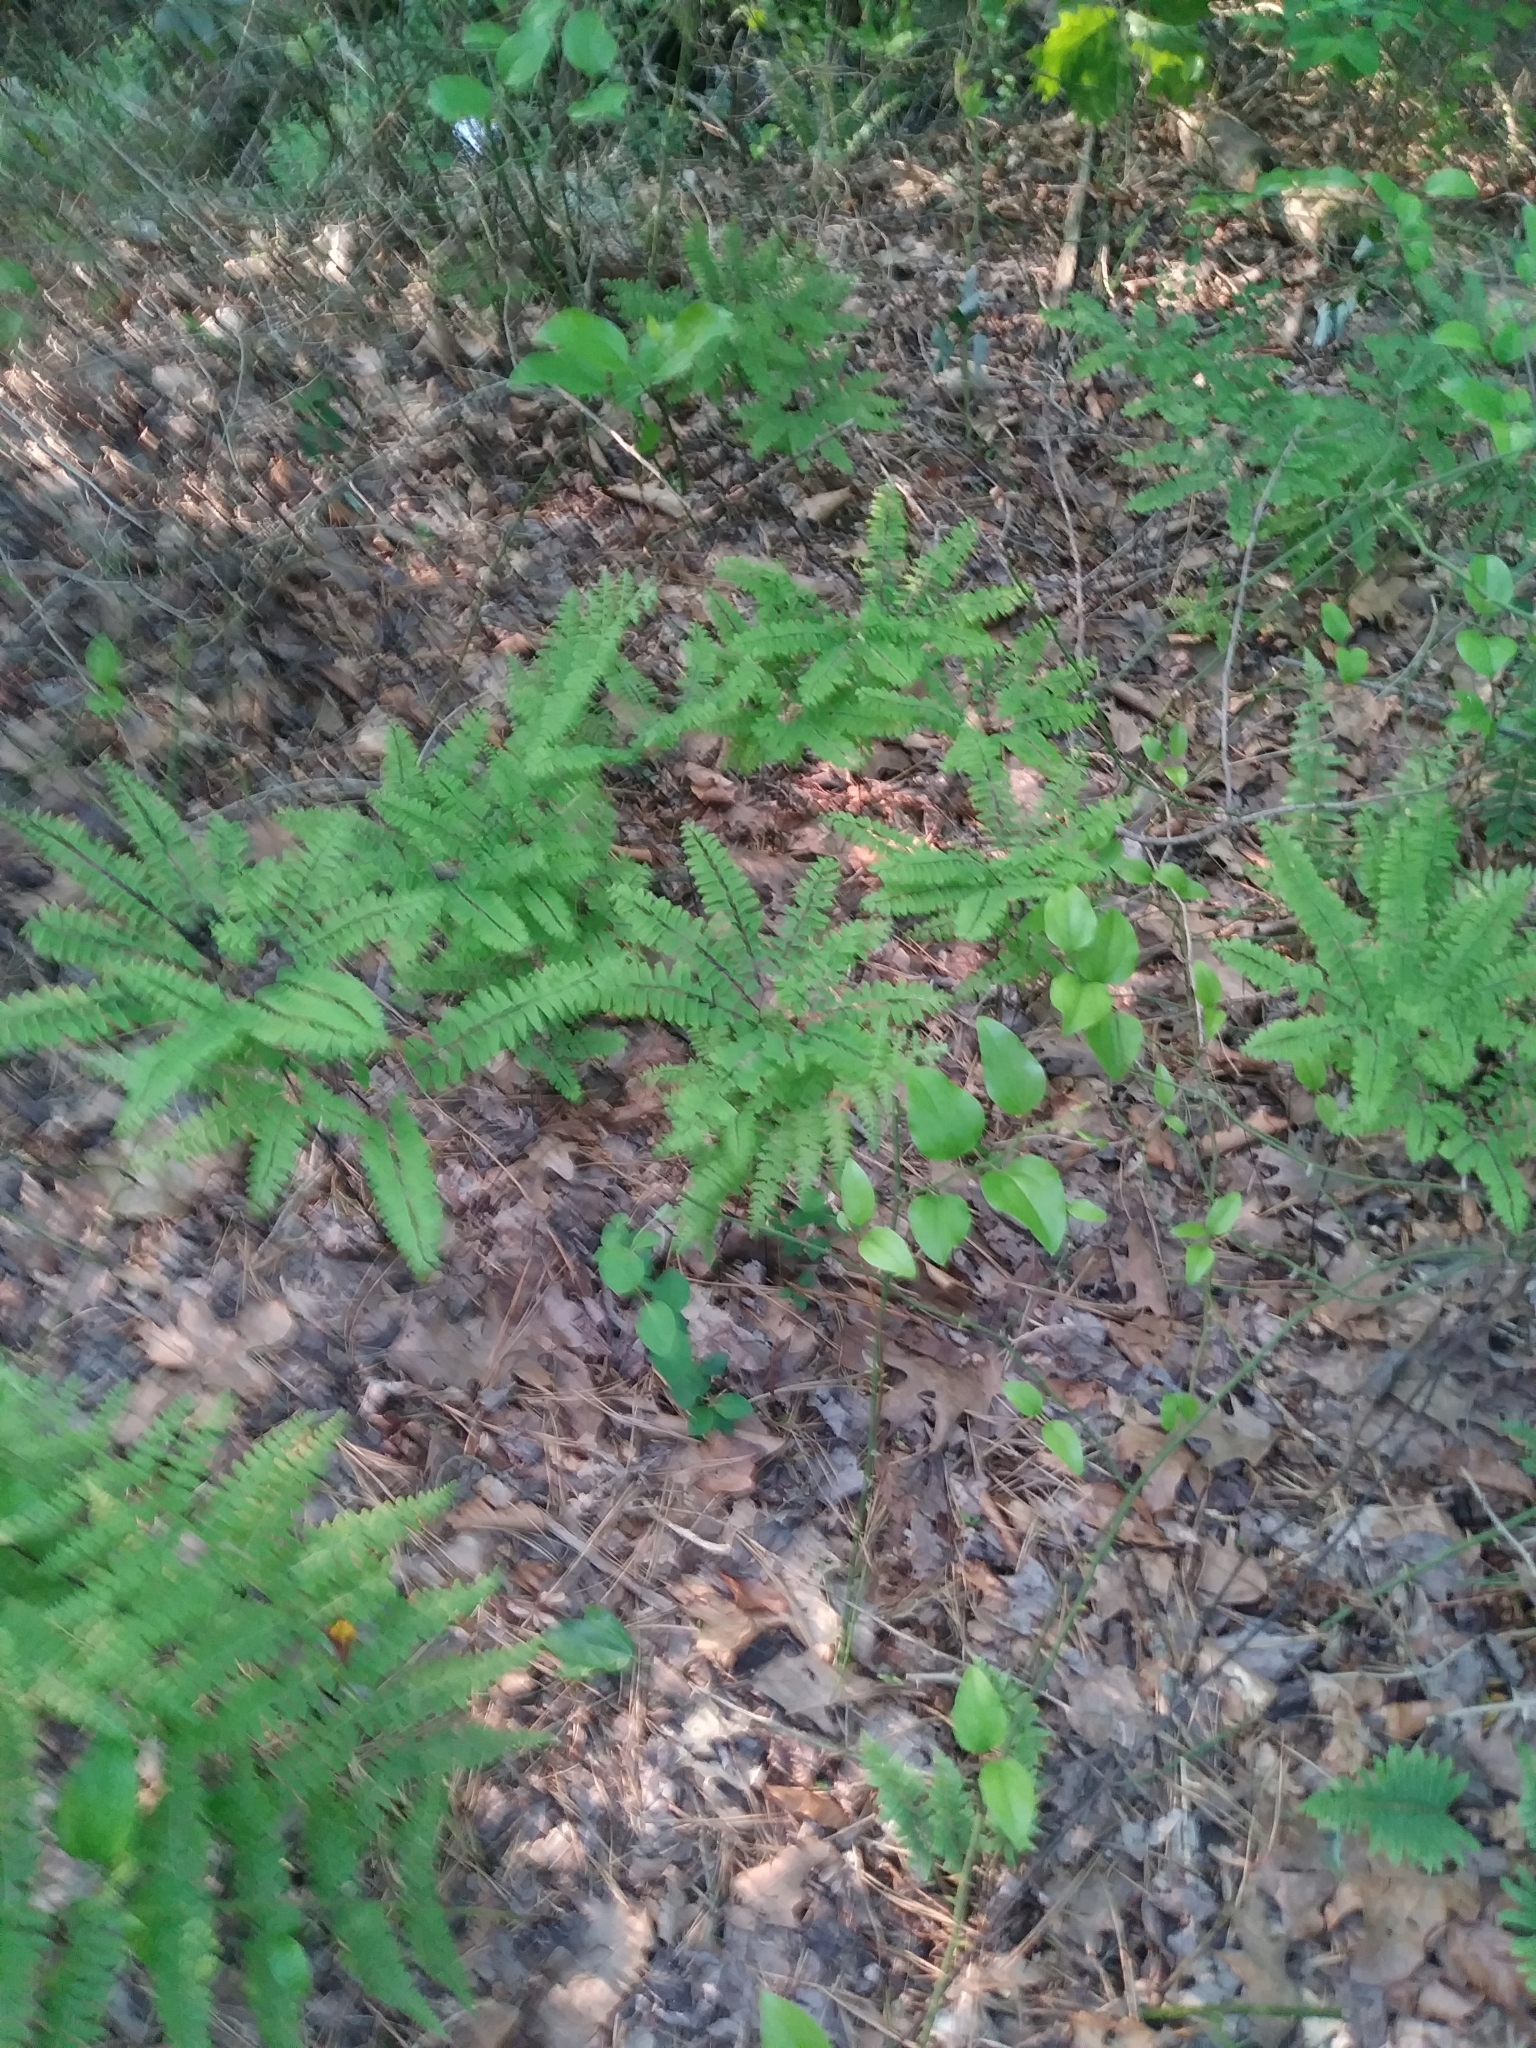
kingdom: Plantae
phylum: Tracheophyta
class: Polypodiopsida
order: Polypodiales
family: Pteridaceae
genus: Adiantum
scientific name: Adiantum pedatum
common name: Five-finger fern
